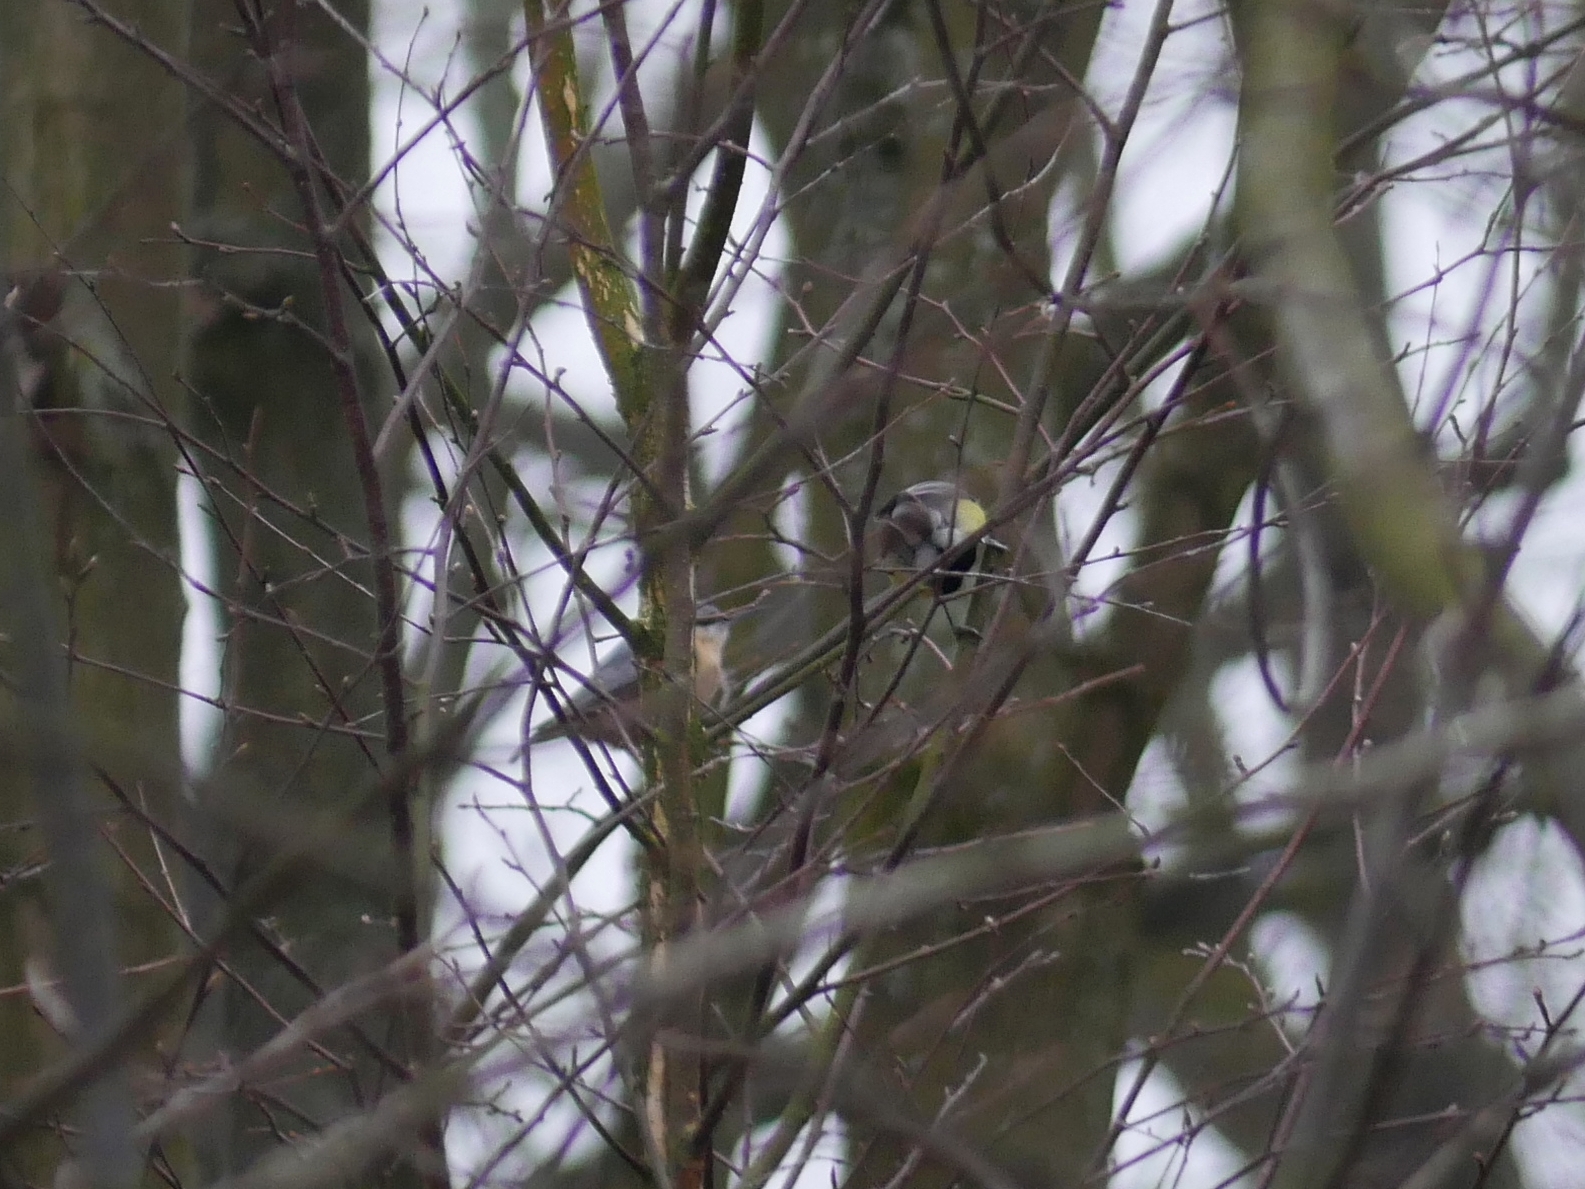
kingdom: Animalia
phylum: Chordata
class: Aves
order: Passeriformes
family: Sittidae
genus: Sitta
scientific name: Sitta europaea
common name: Eurasian nuthatch
